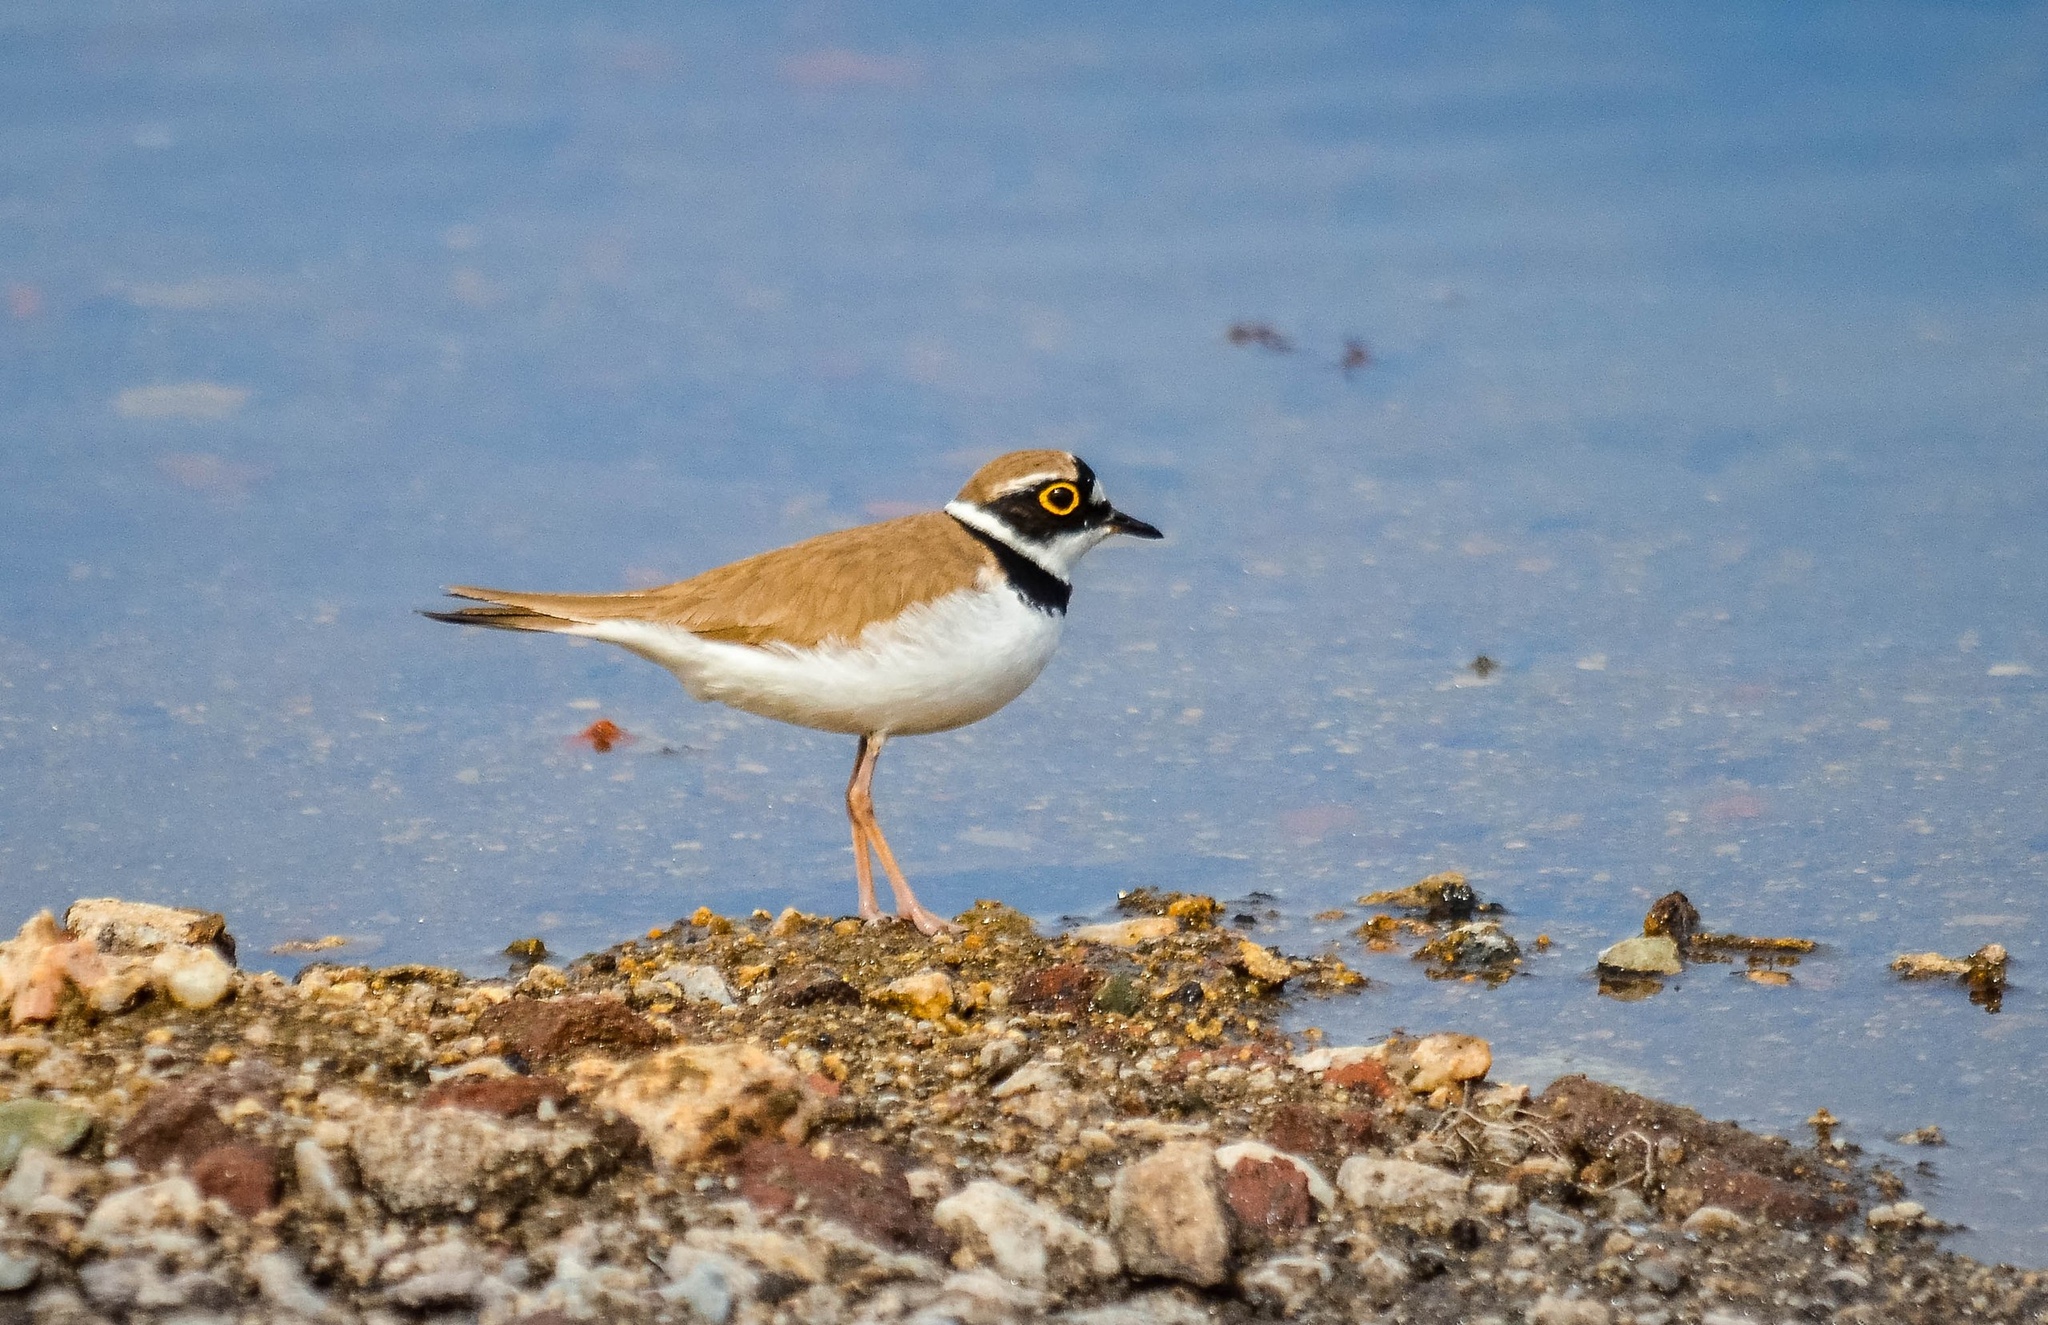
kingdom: Animalia
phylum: Chordata
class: Aves
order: Charadriiformes
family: Charadriidae
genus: Charadrius
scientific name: Charadrius dubius
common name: Little ringed plover
